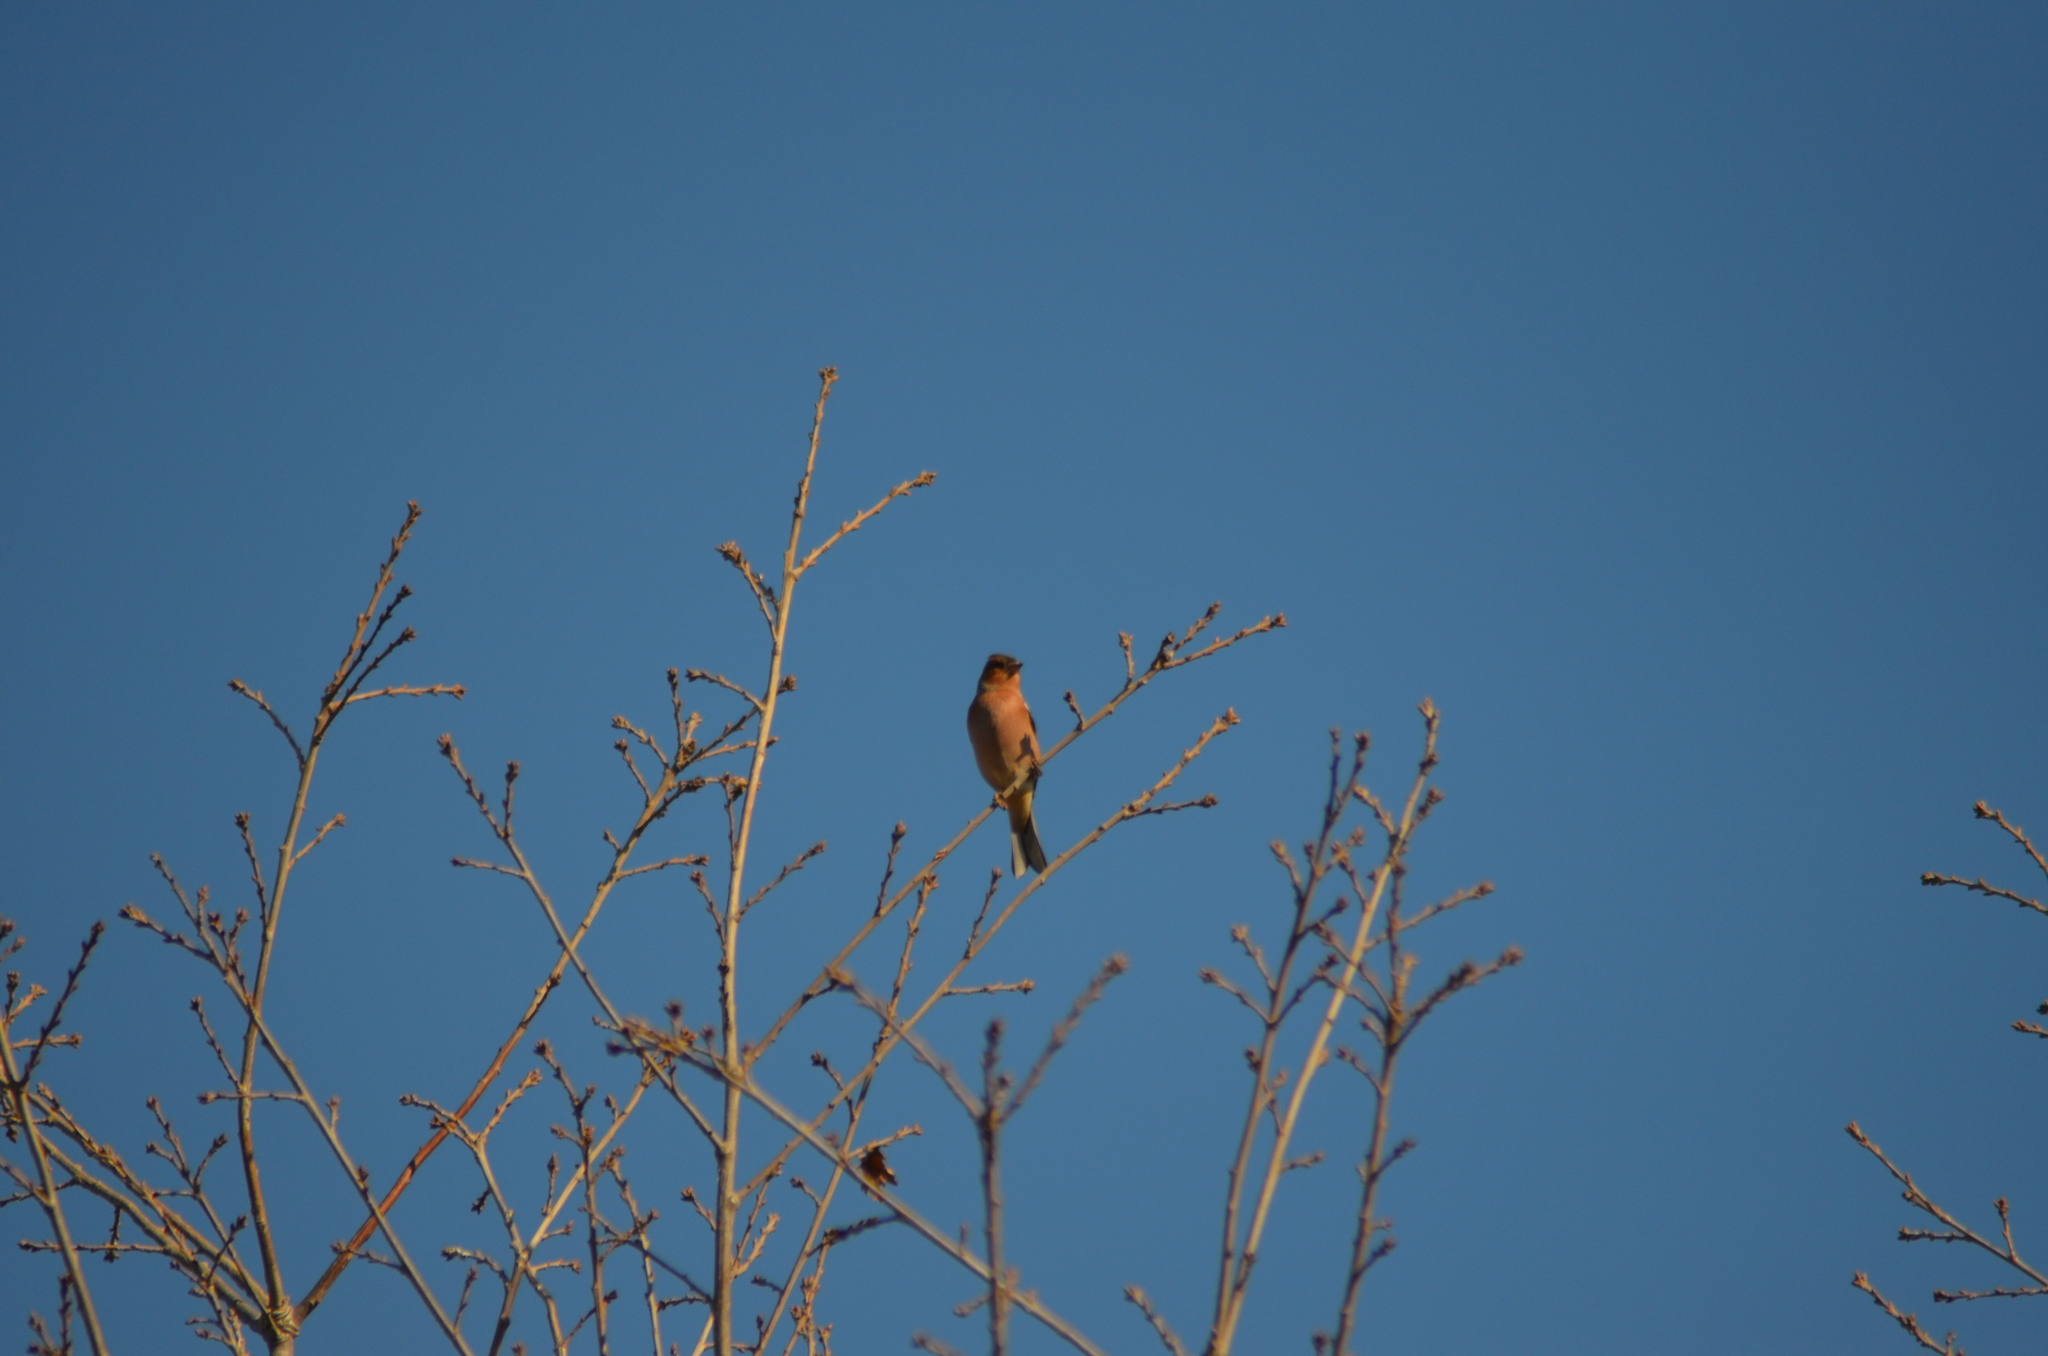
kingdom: Animalia
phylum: Chordata
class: Aves
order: Passeriformes
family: Fringillidae
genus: Fringilla
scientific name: Fringilla coelebs
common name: Common chaffinch
